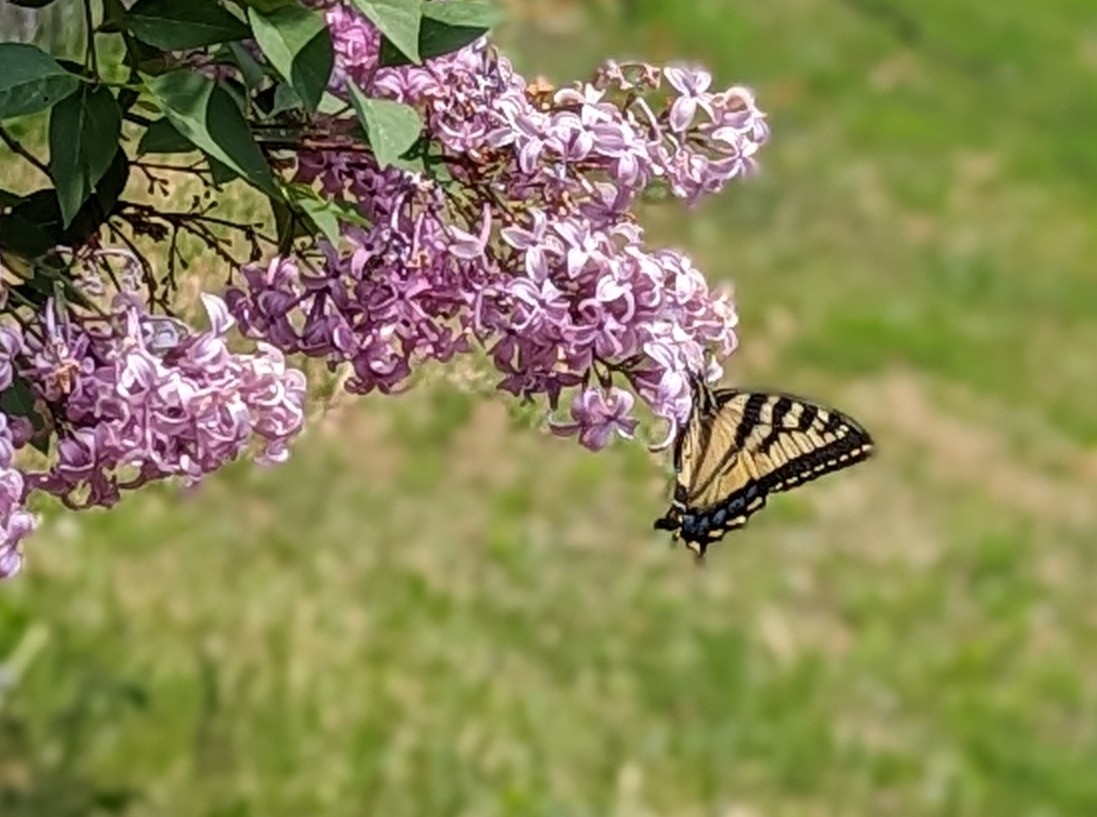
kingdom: Animalia
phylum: Arthropoda
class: Insecta
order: Lepidoptera
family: Papilionidae
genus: Papilio
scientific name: Papilio canadensis
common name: Canadian tiger swallowtail
